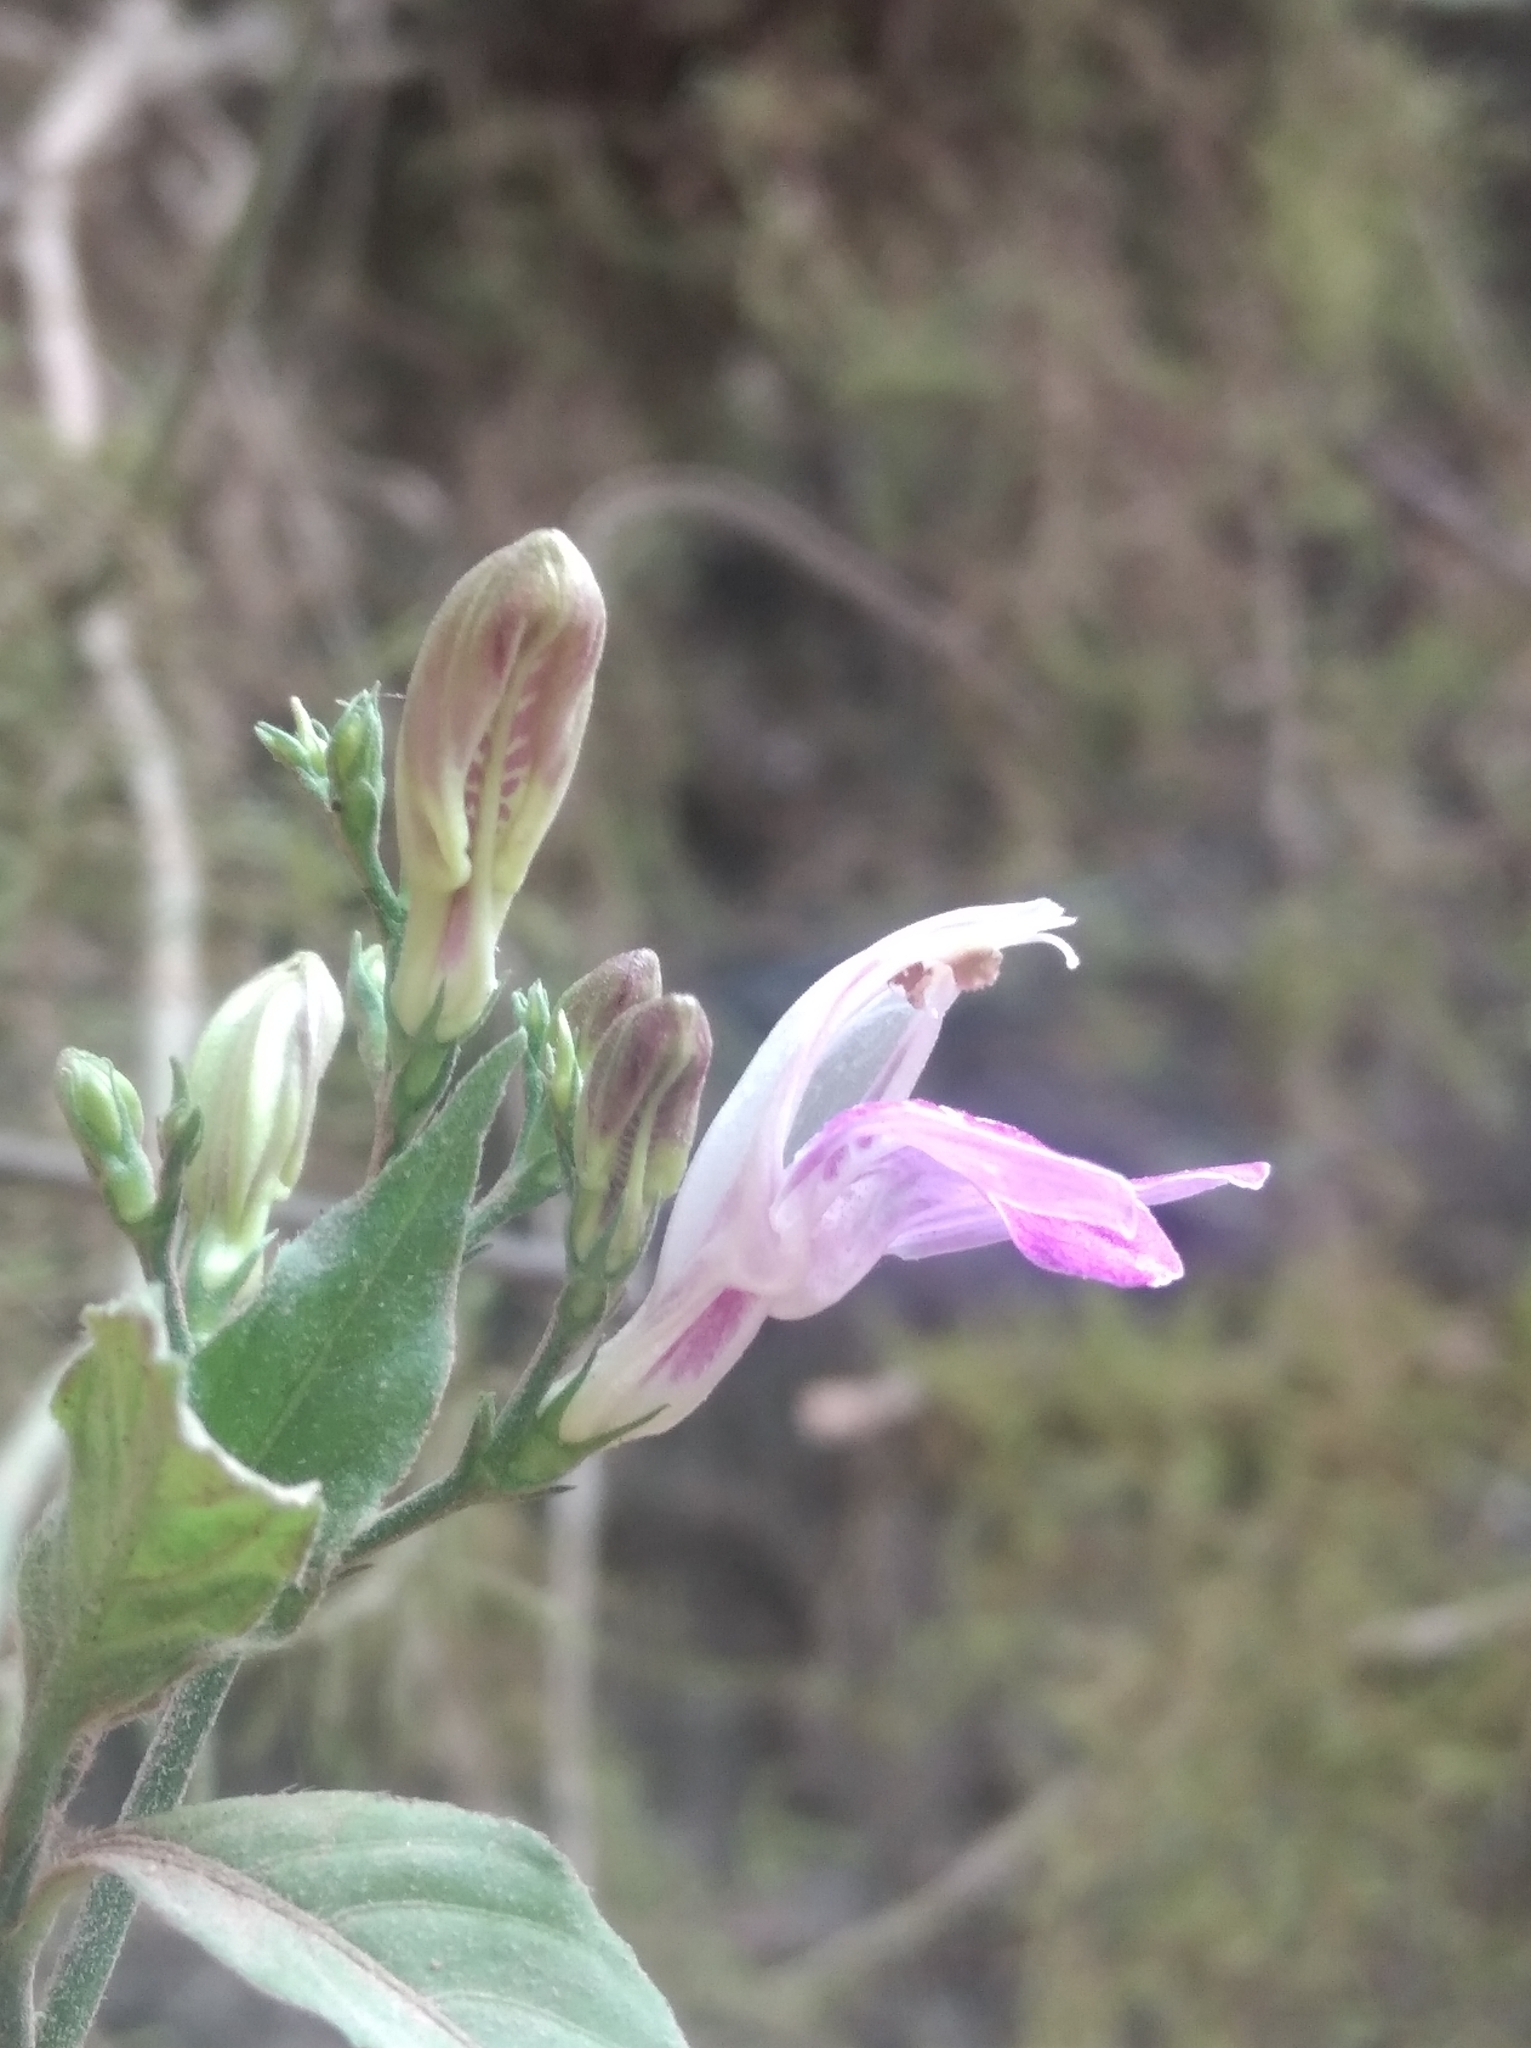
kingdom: Plantae
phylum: Tracheophyta
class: Magnoliopsida
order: Lamiales
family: Acanthaceae
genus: Justicia
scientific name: Justicia kuntzei
